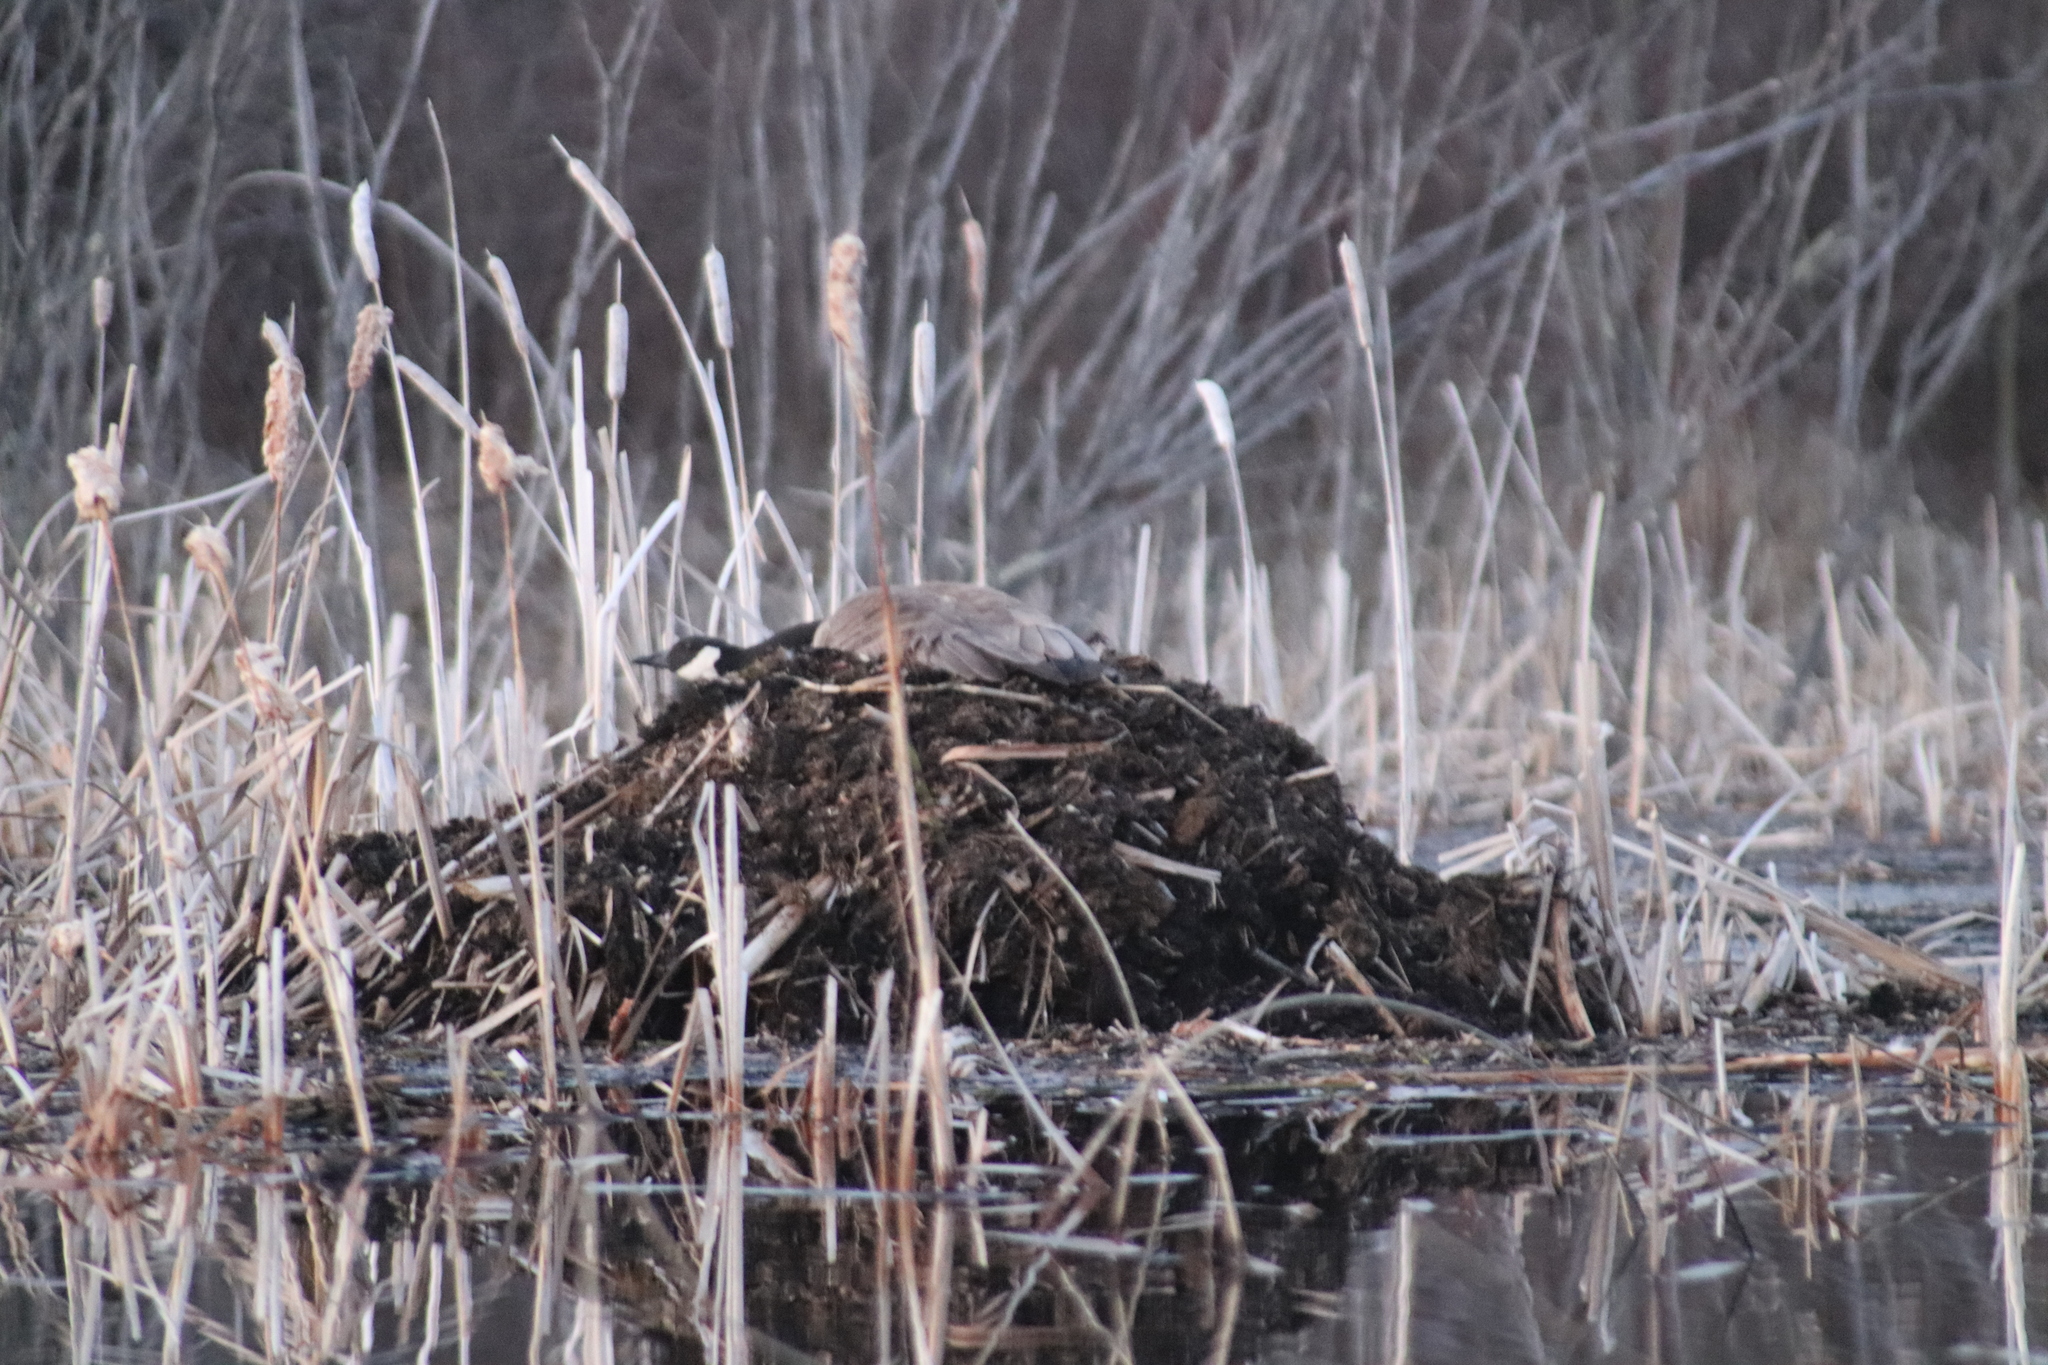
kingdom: Animalia
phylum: Chordata
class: Aves
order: Anseriformes
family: Anatidae
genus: Branta
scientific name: Branta canadensis
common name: Canada goose
